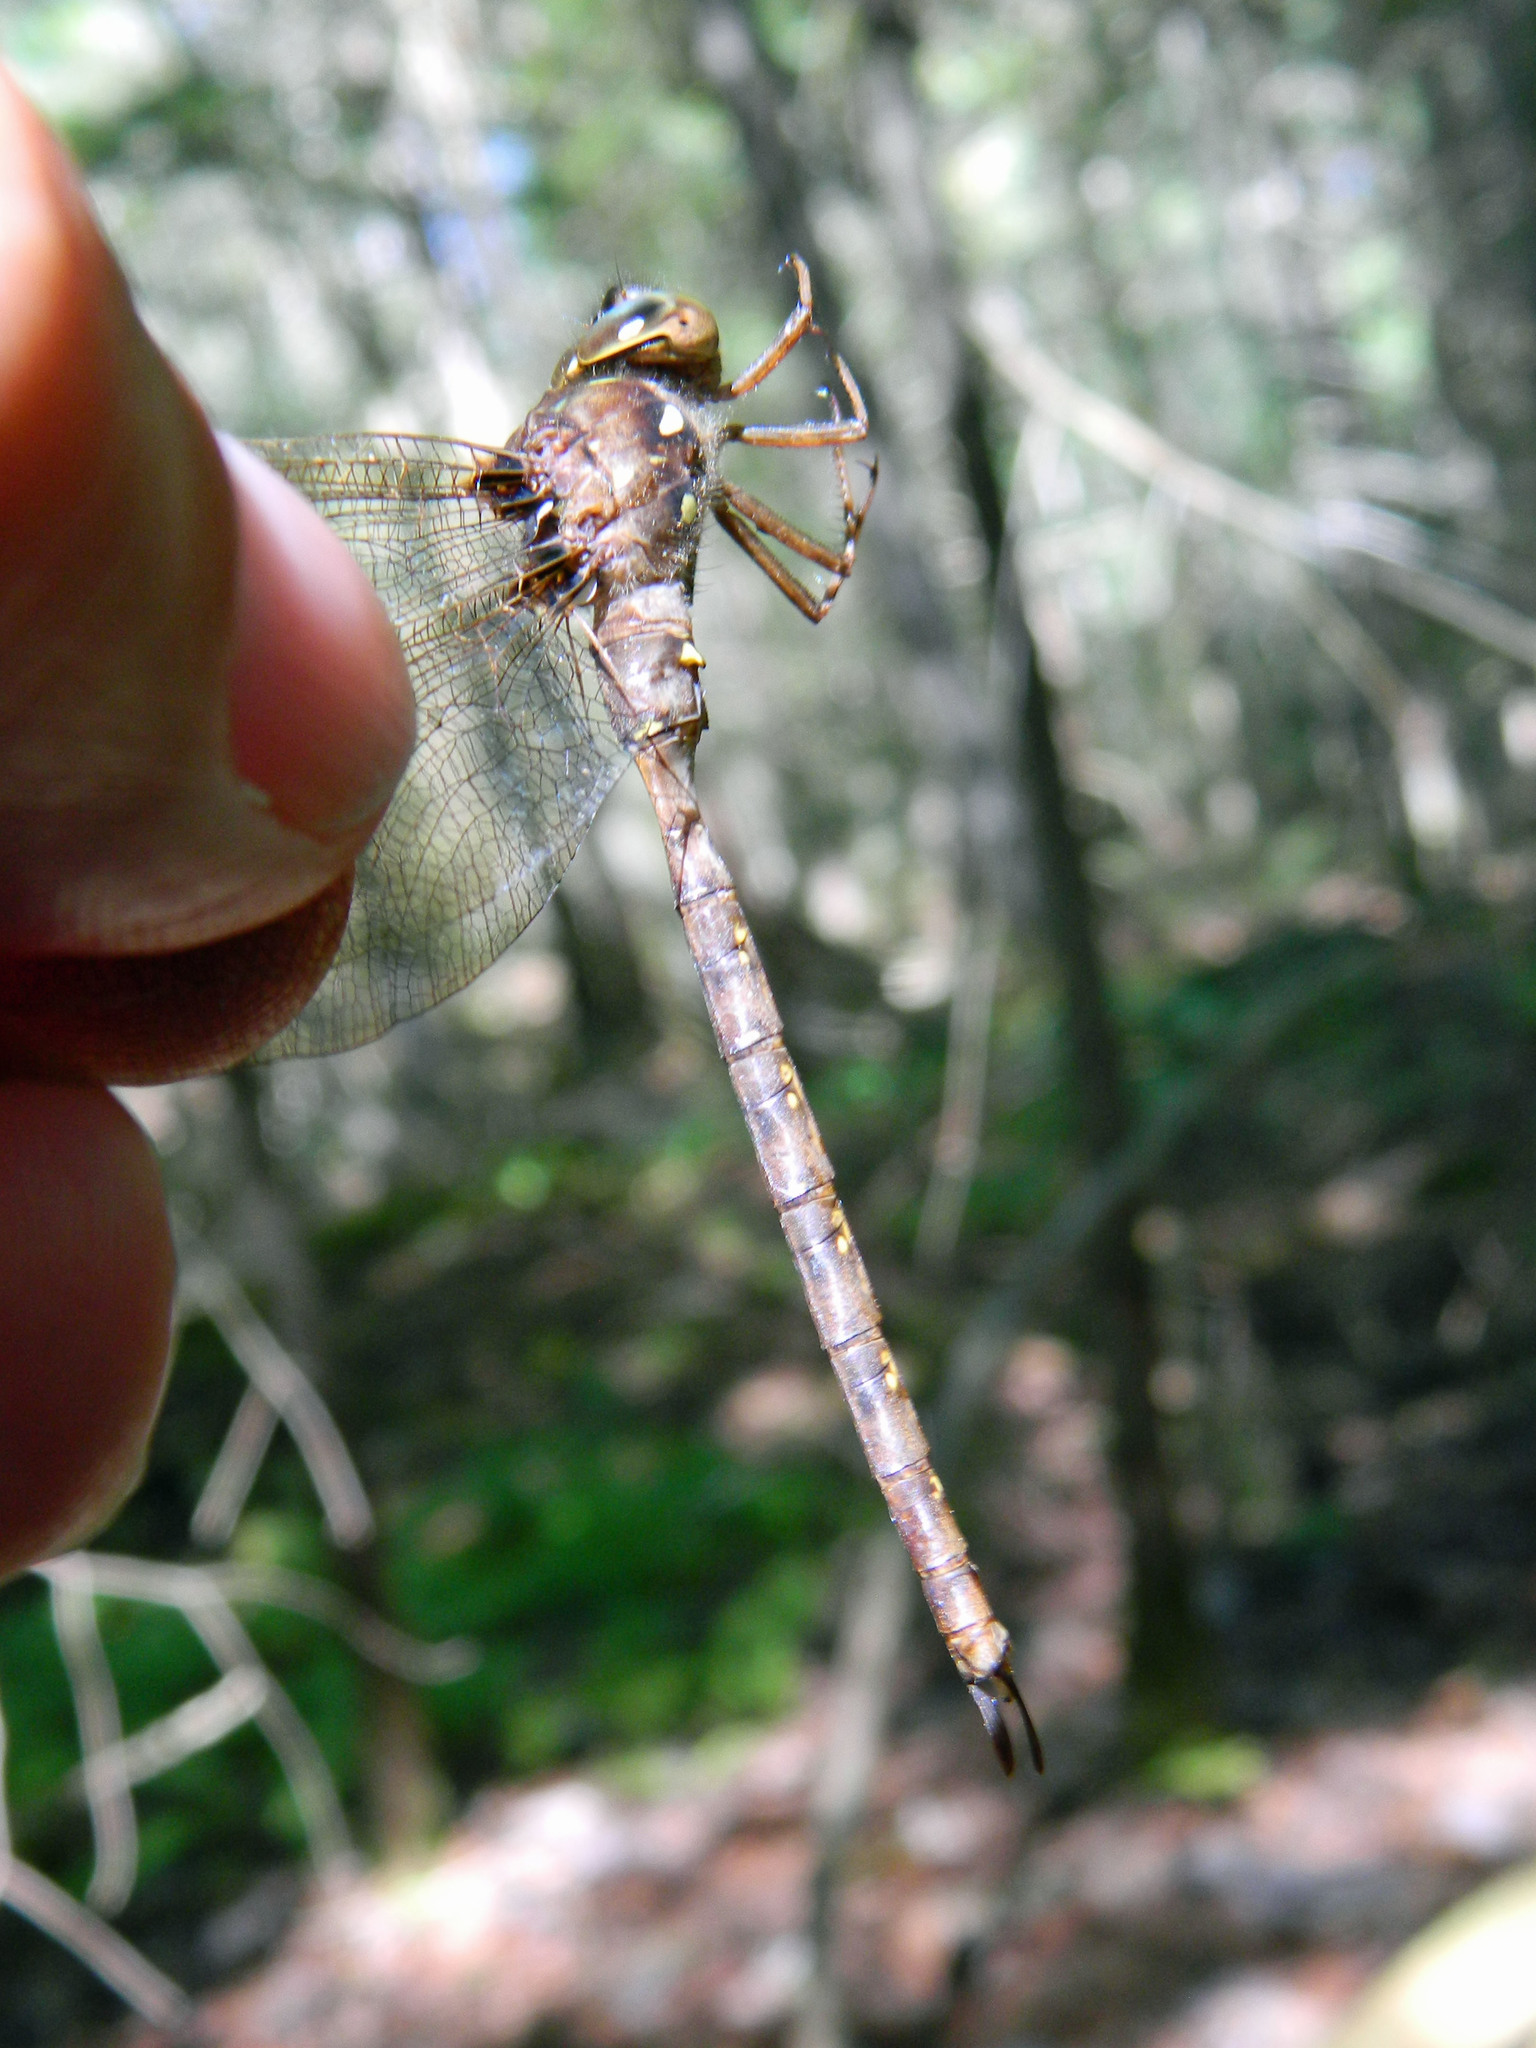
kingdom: Animalia
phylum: Arthropoda
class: Insecta
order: Odonata
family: Aeshnidae
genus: Boyeria
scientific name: Boyeria vinosa
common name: Fawn darner
